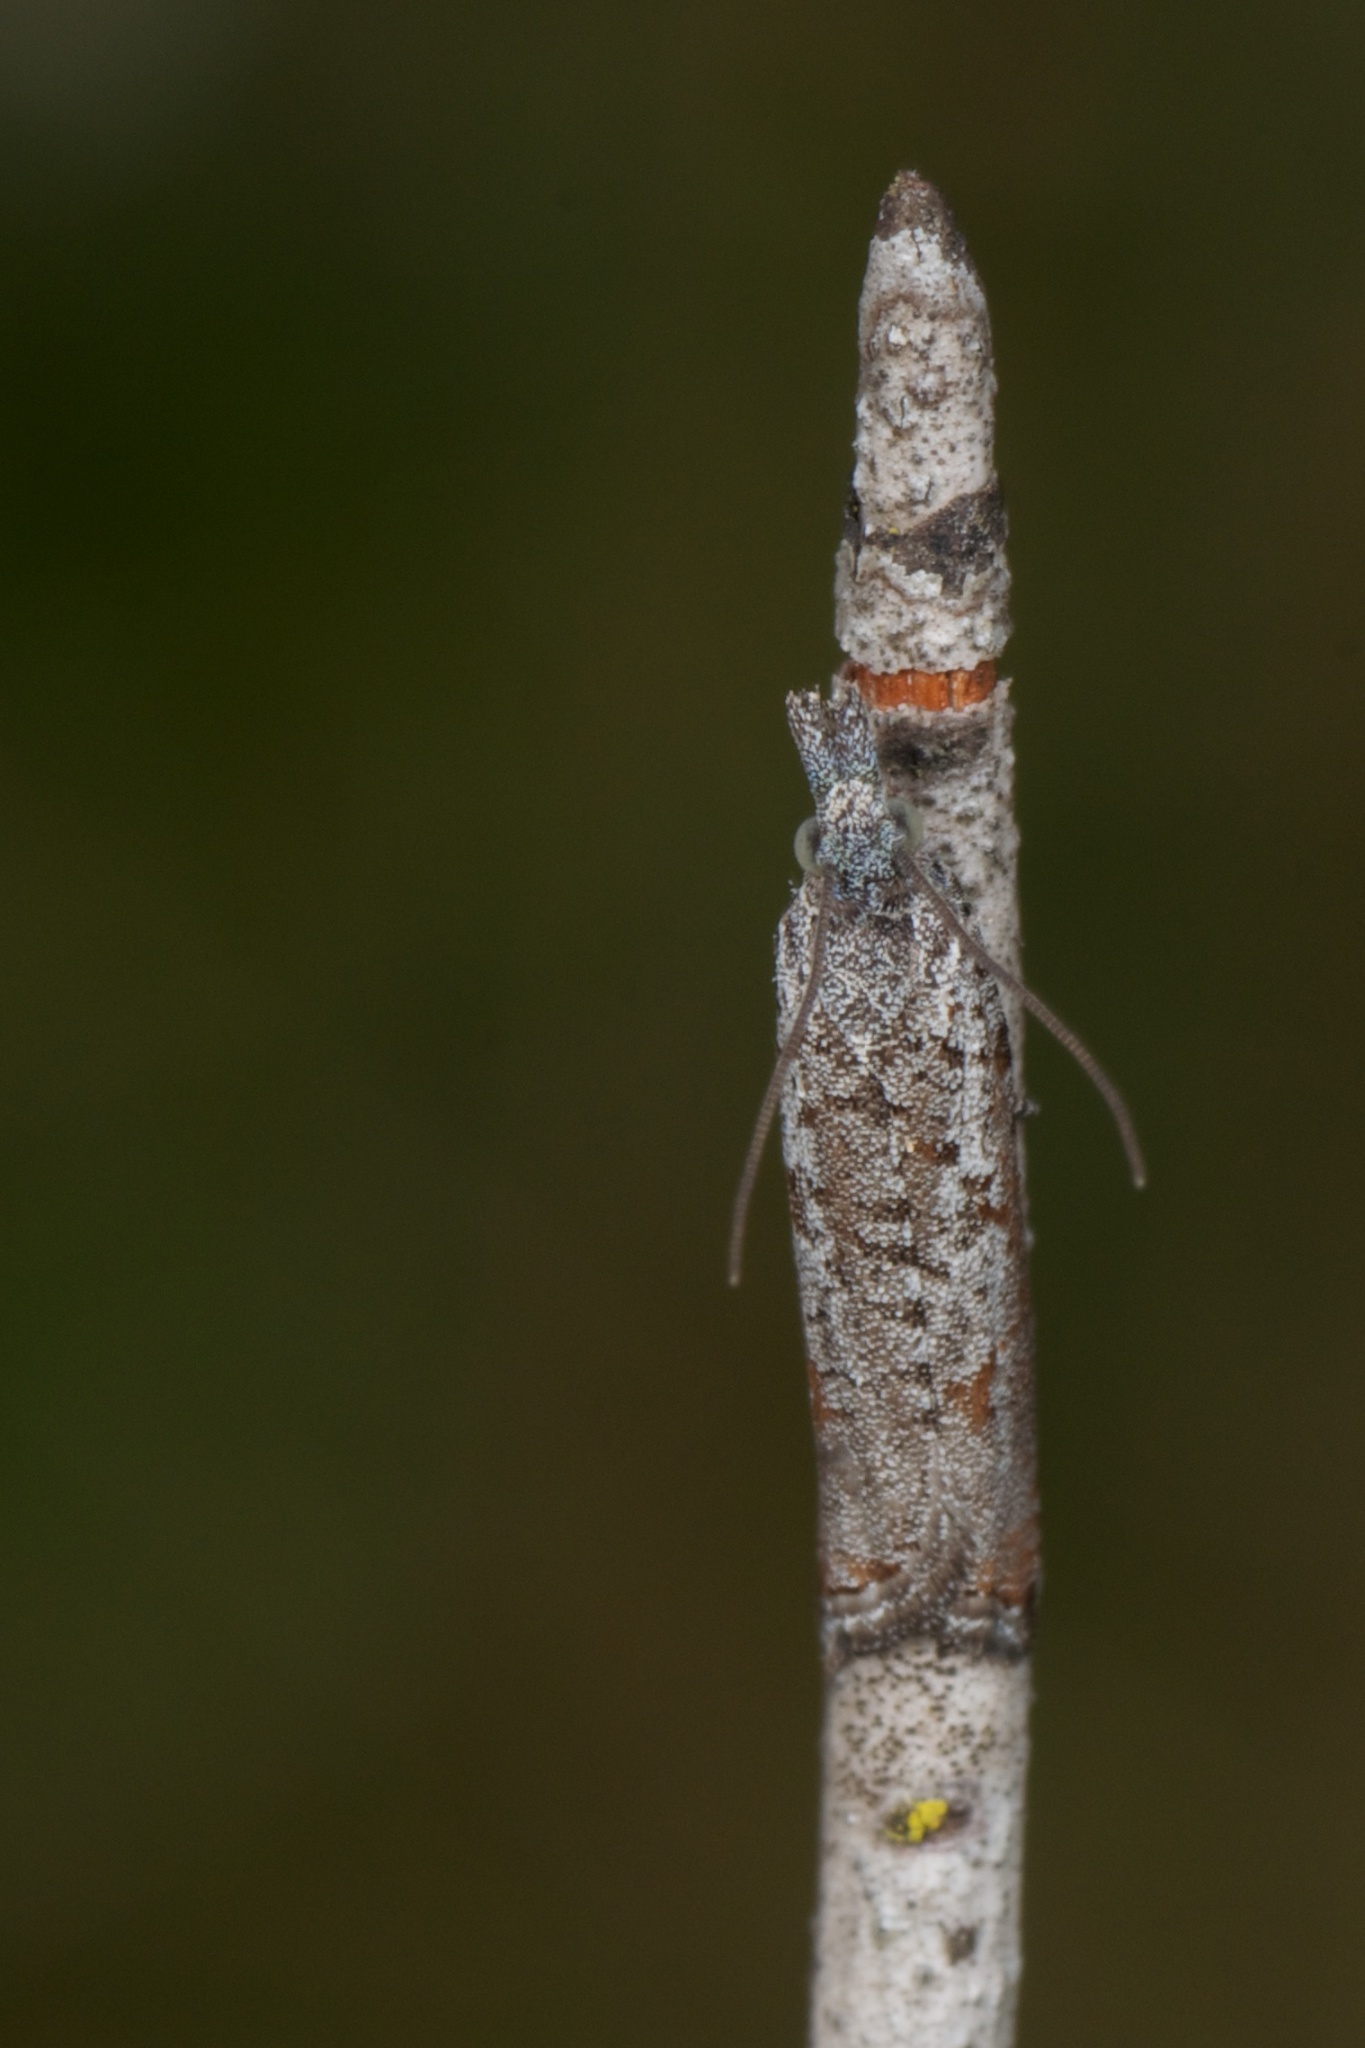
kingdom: Animalia
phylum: Arthropoda
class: Insecta
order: Lepidoptera
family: Tortricidae
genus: Acroclita
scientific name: Acroclita discariana
